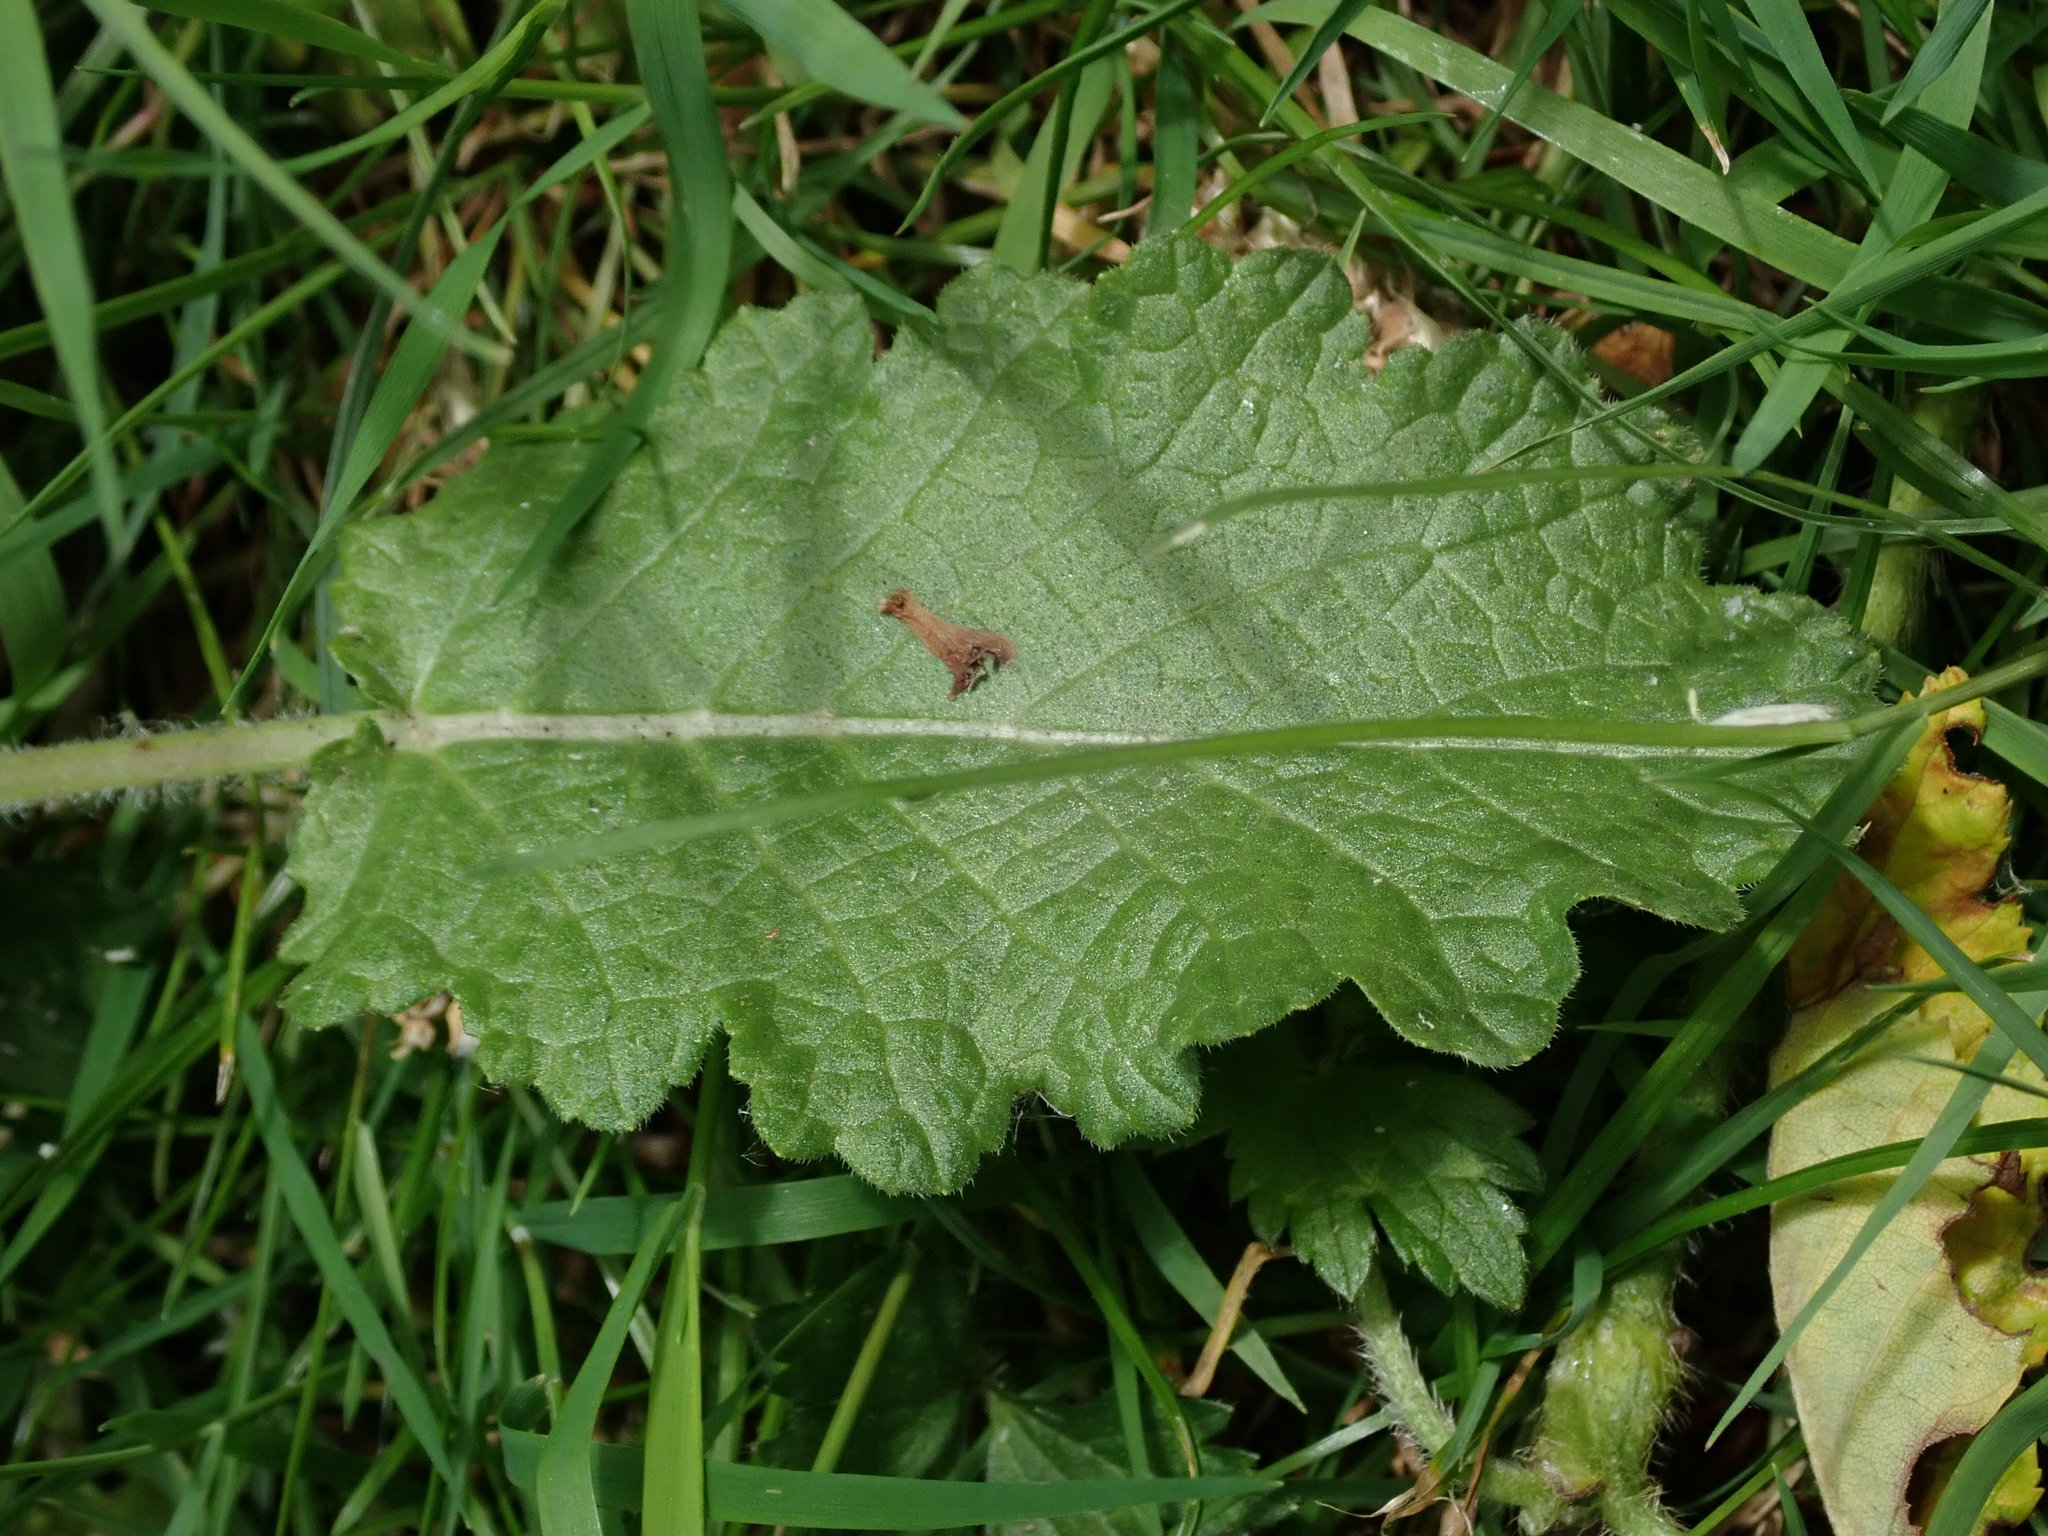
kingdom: Plantae
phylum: Tracheophyta
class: Magnoliopsida
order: Lamiales
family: Lamiaceae
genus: Salvia
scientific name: Salvia verbenaca
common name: Wild clary
